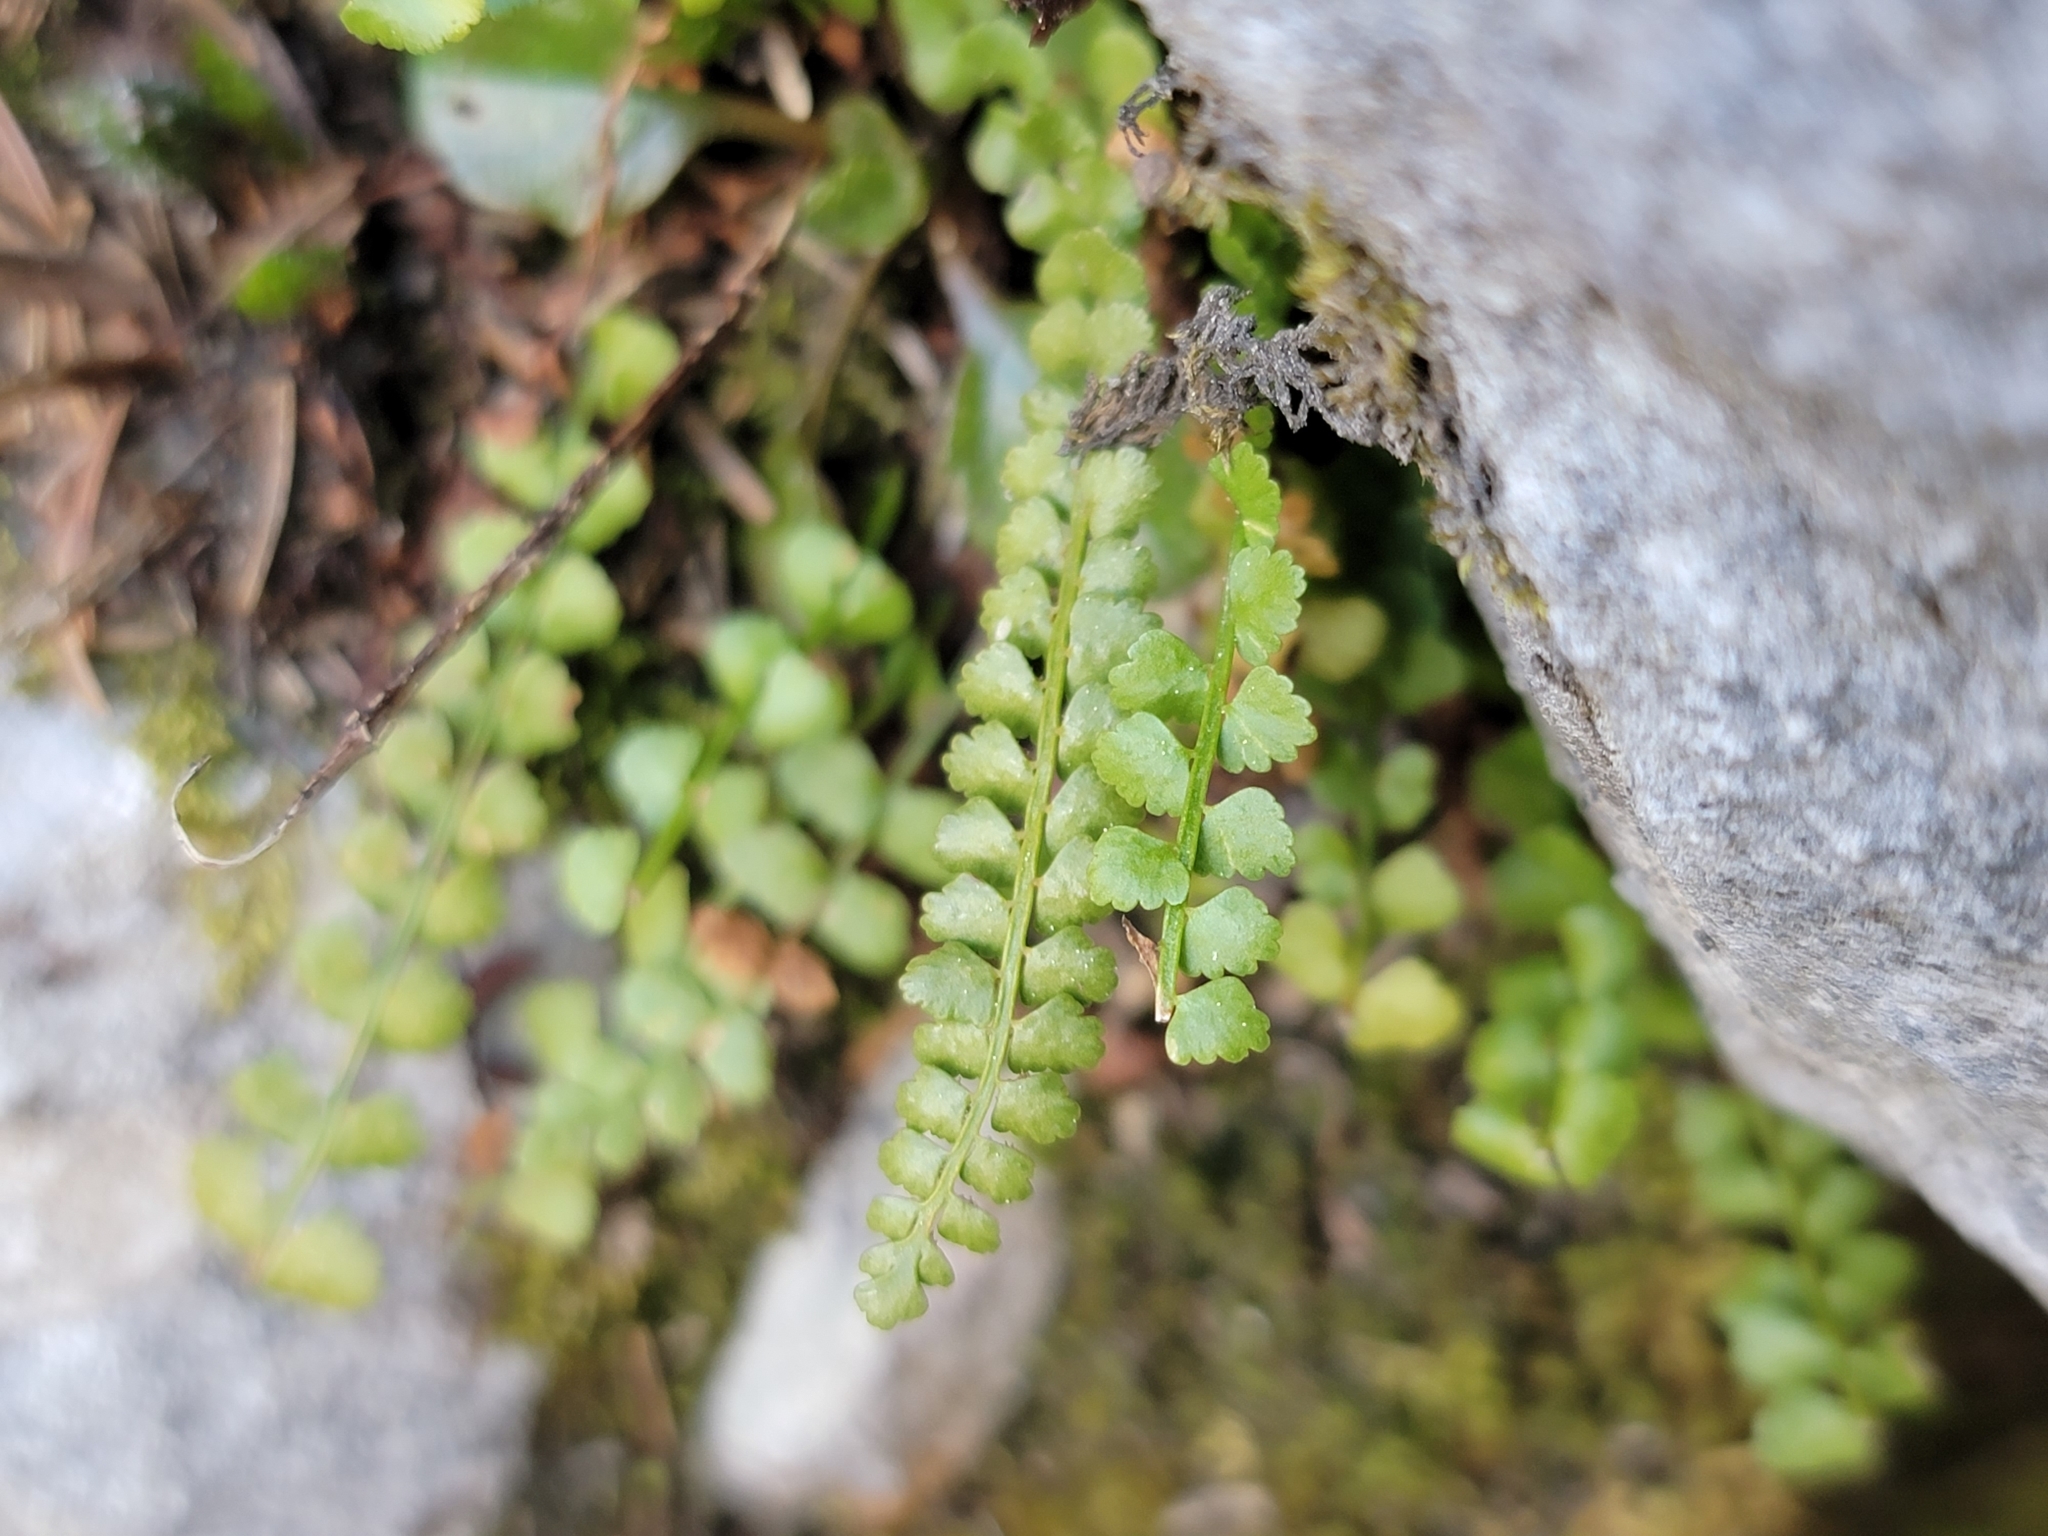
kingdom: Plantae
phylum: Tracheophyta
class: Polypodiopsida
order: Polypodiales
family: Aspleniaceae
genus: Asplenium
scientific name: Asplenium viride
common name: Green spleenwort
